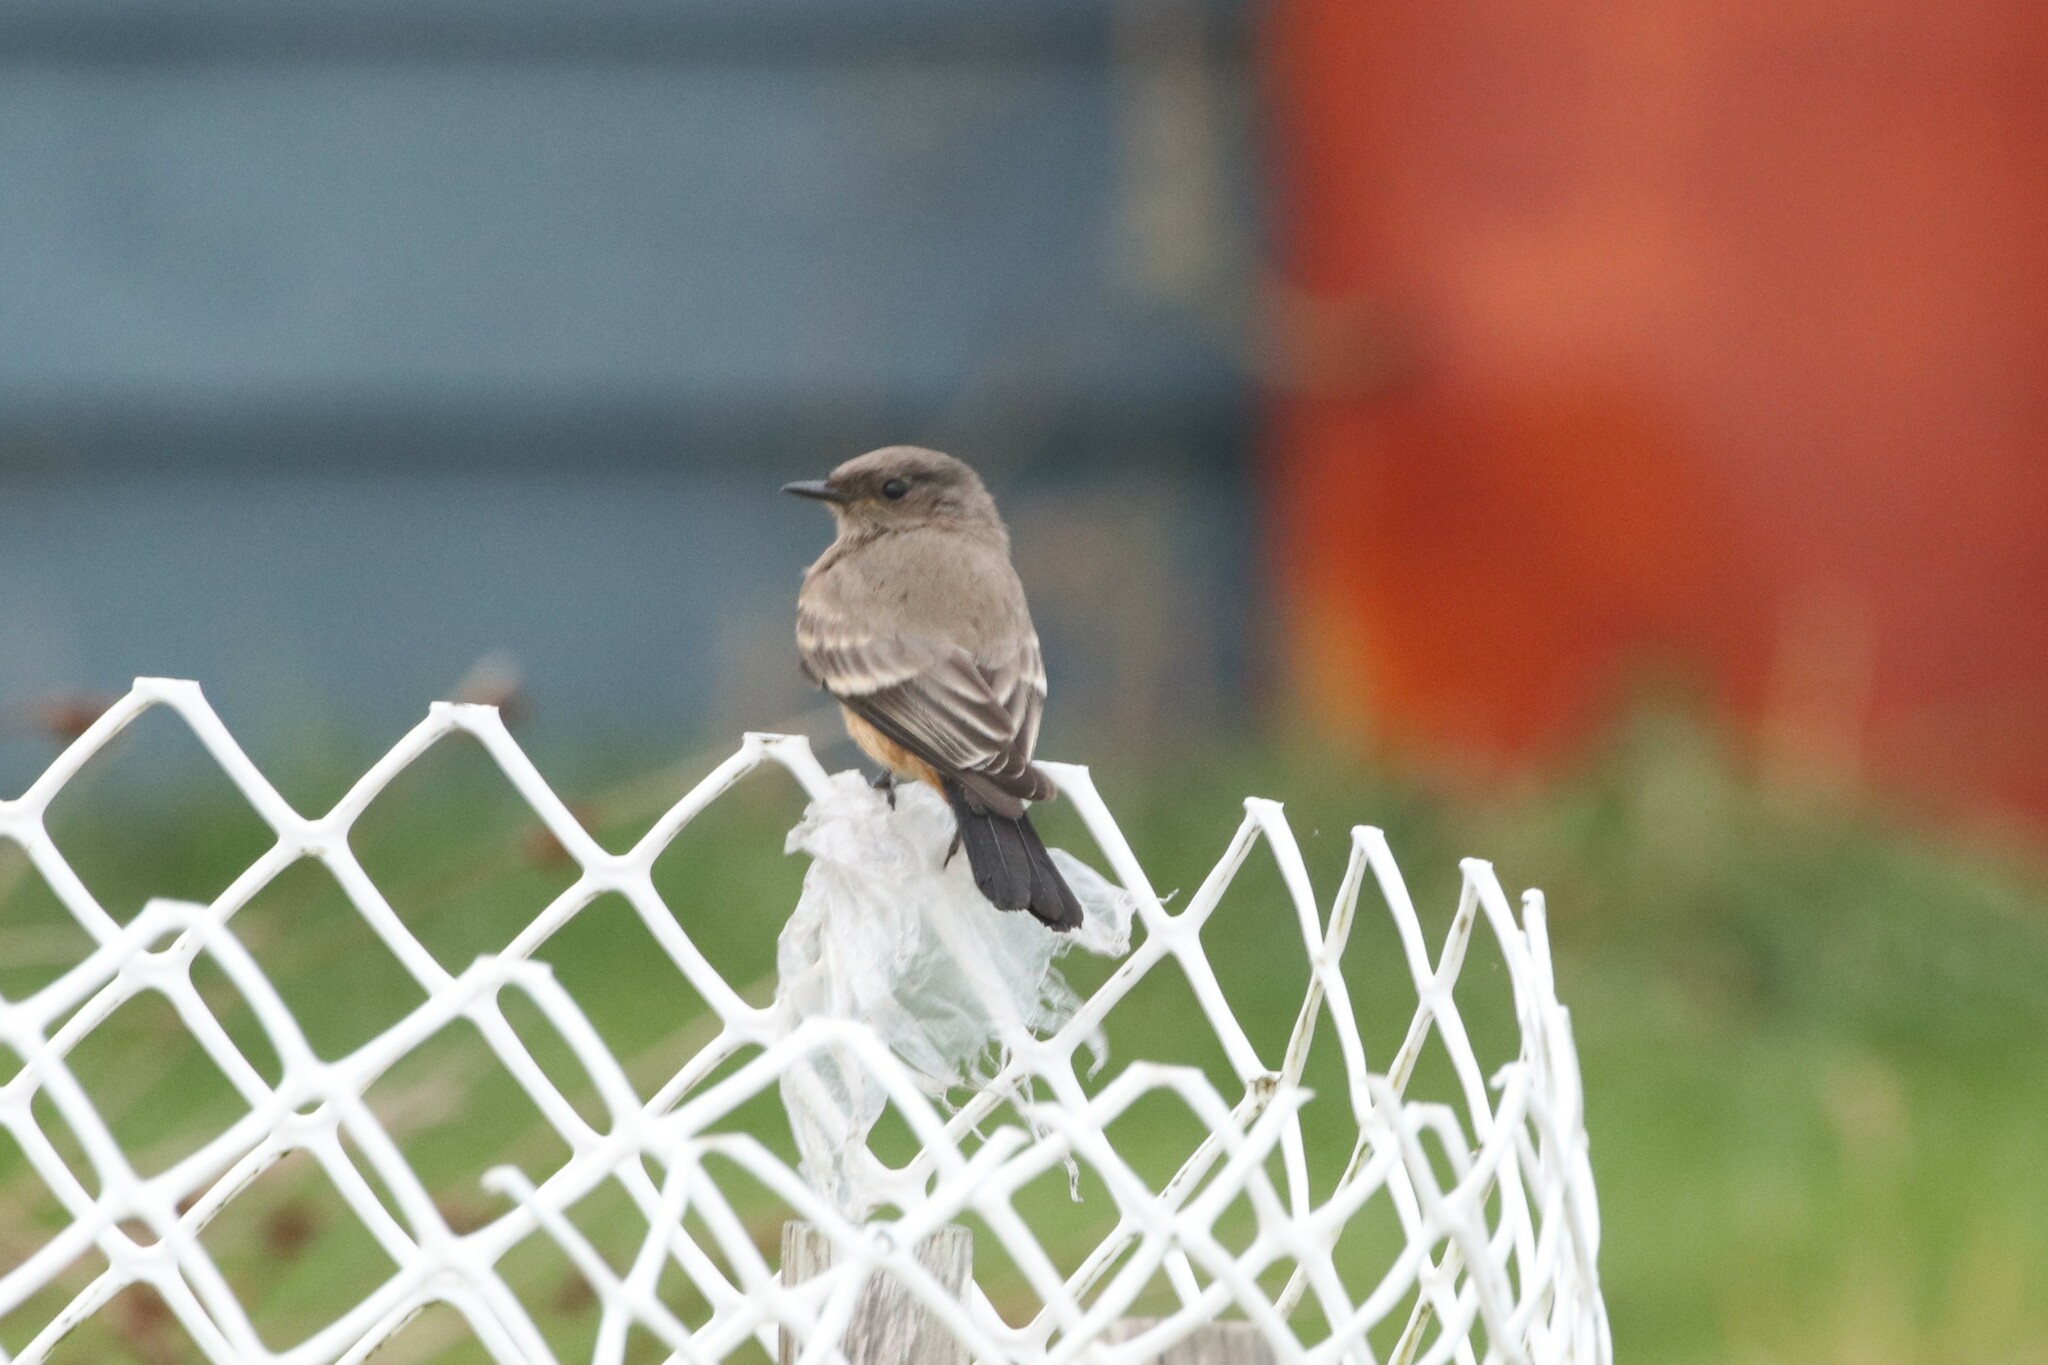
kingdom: Animalia
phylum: Chordata
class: Aves
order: Passeriformes
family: Tyrannidae
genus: Sayornis
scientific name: Sayornis saya
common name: Say's phoebe
